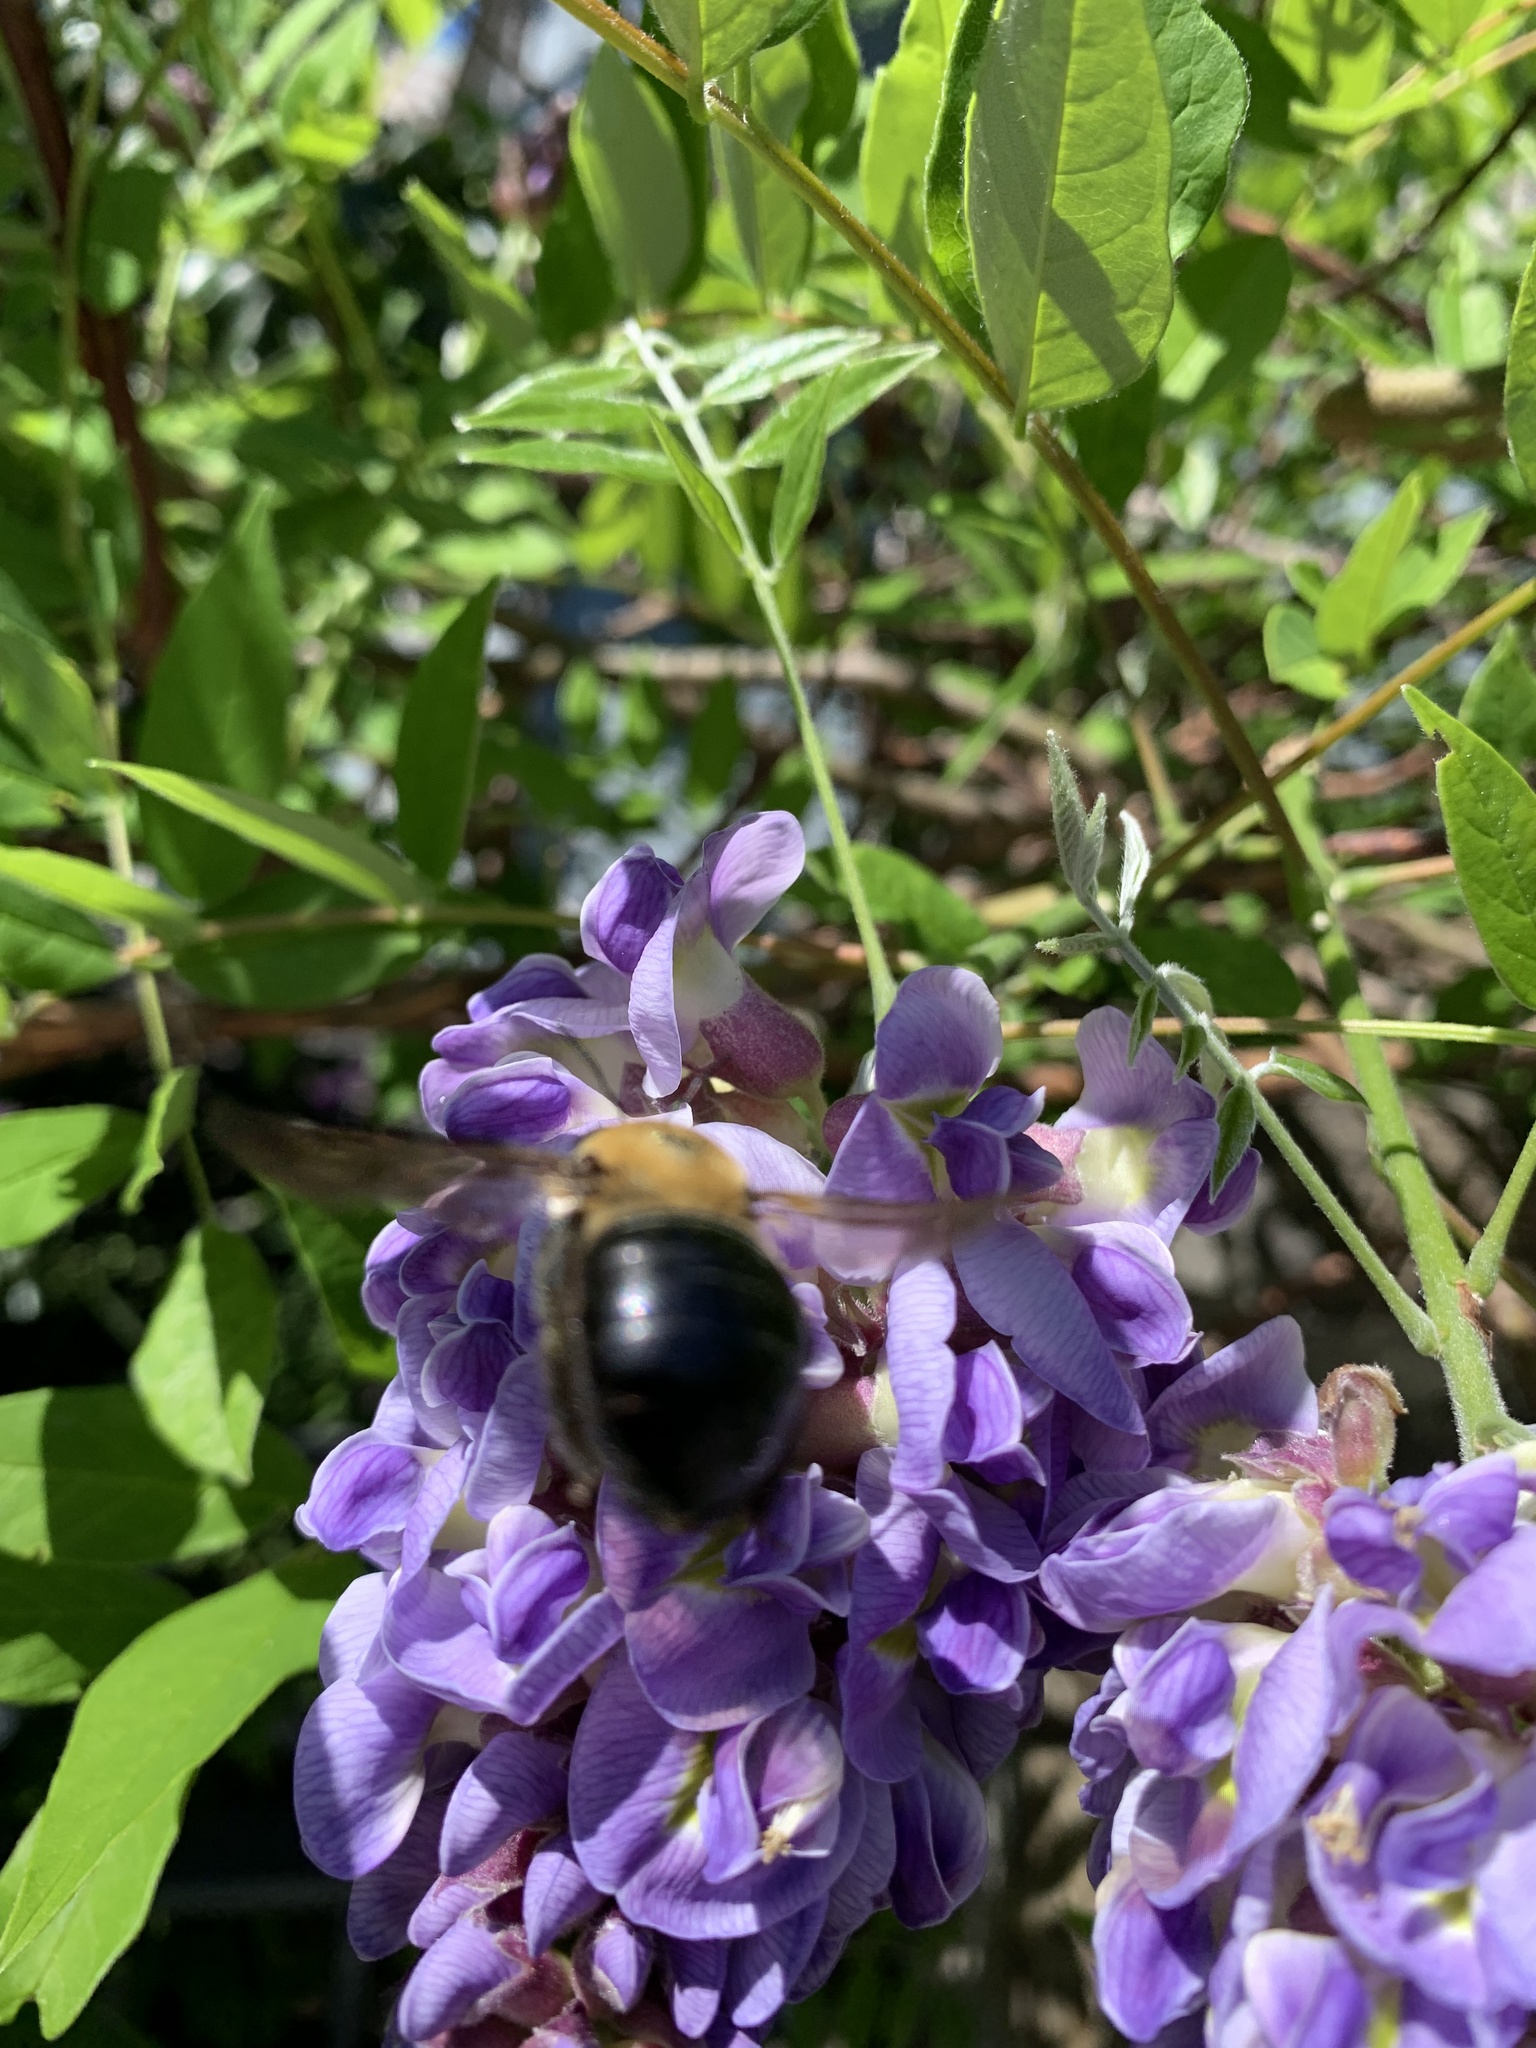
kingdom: Animalia
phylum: Arthropoda
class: Insecta
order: Hymenoptera
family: Apidae
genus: Xylocopa
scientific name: Xylocopa virginica
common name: Carpenter bee
